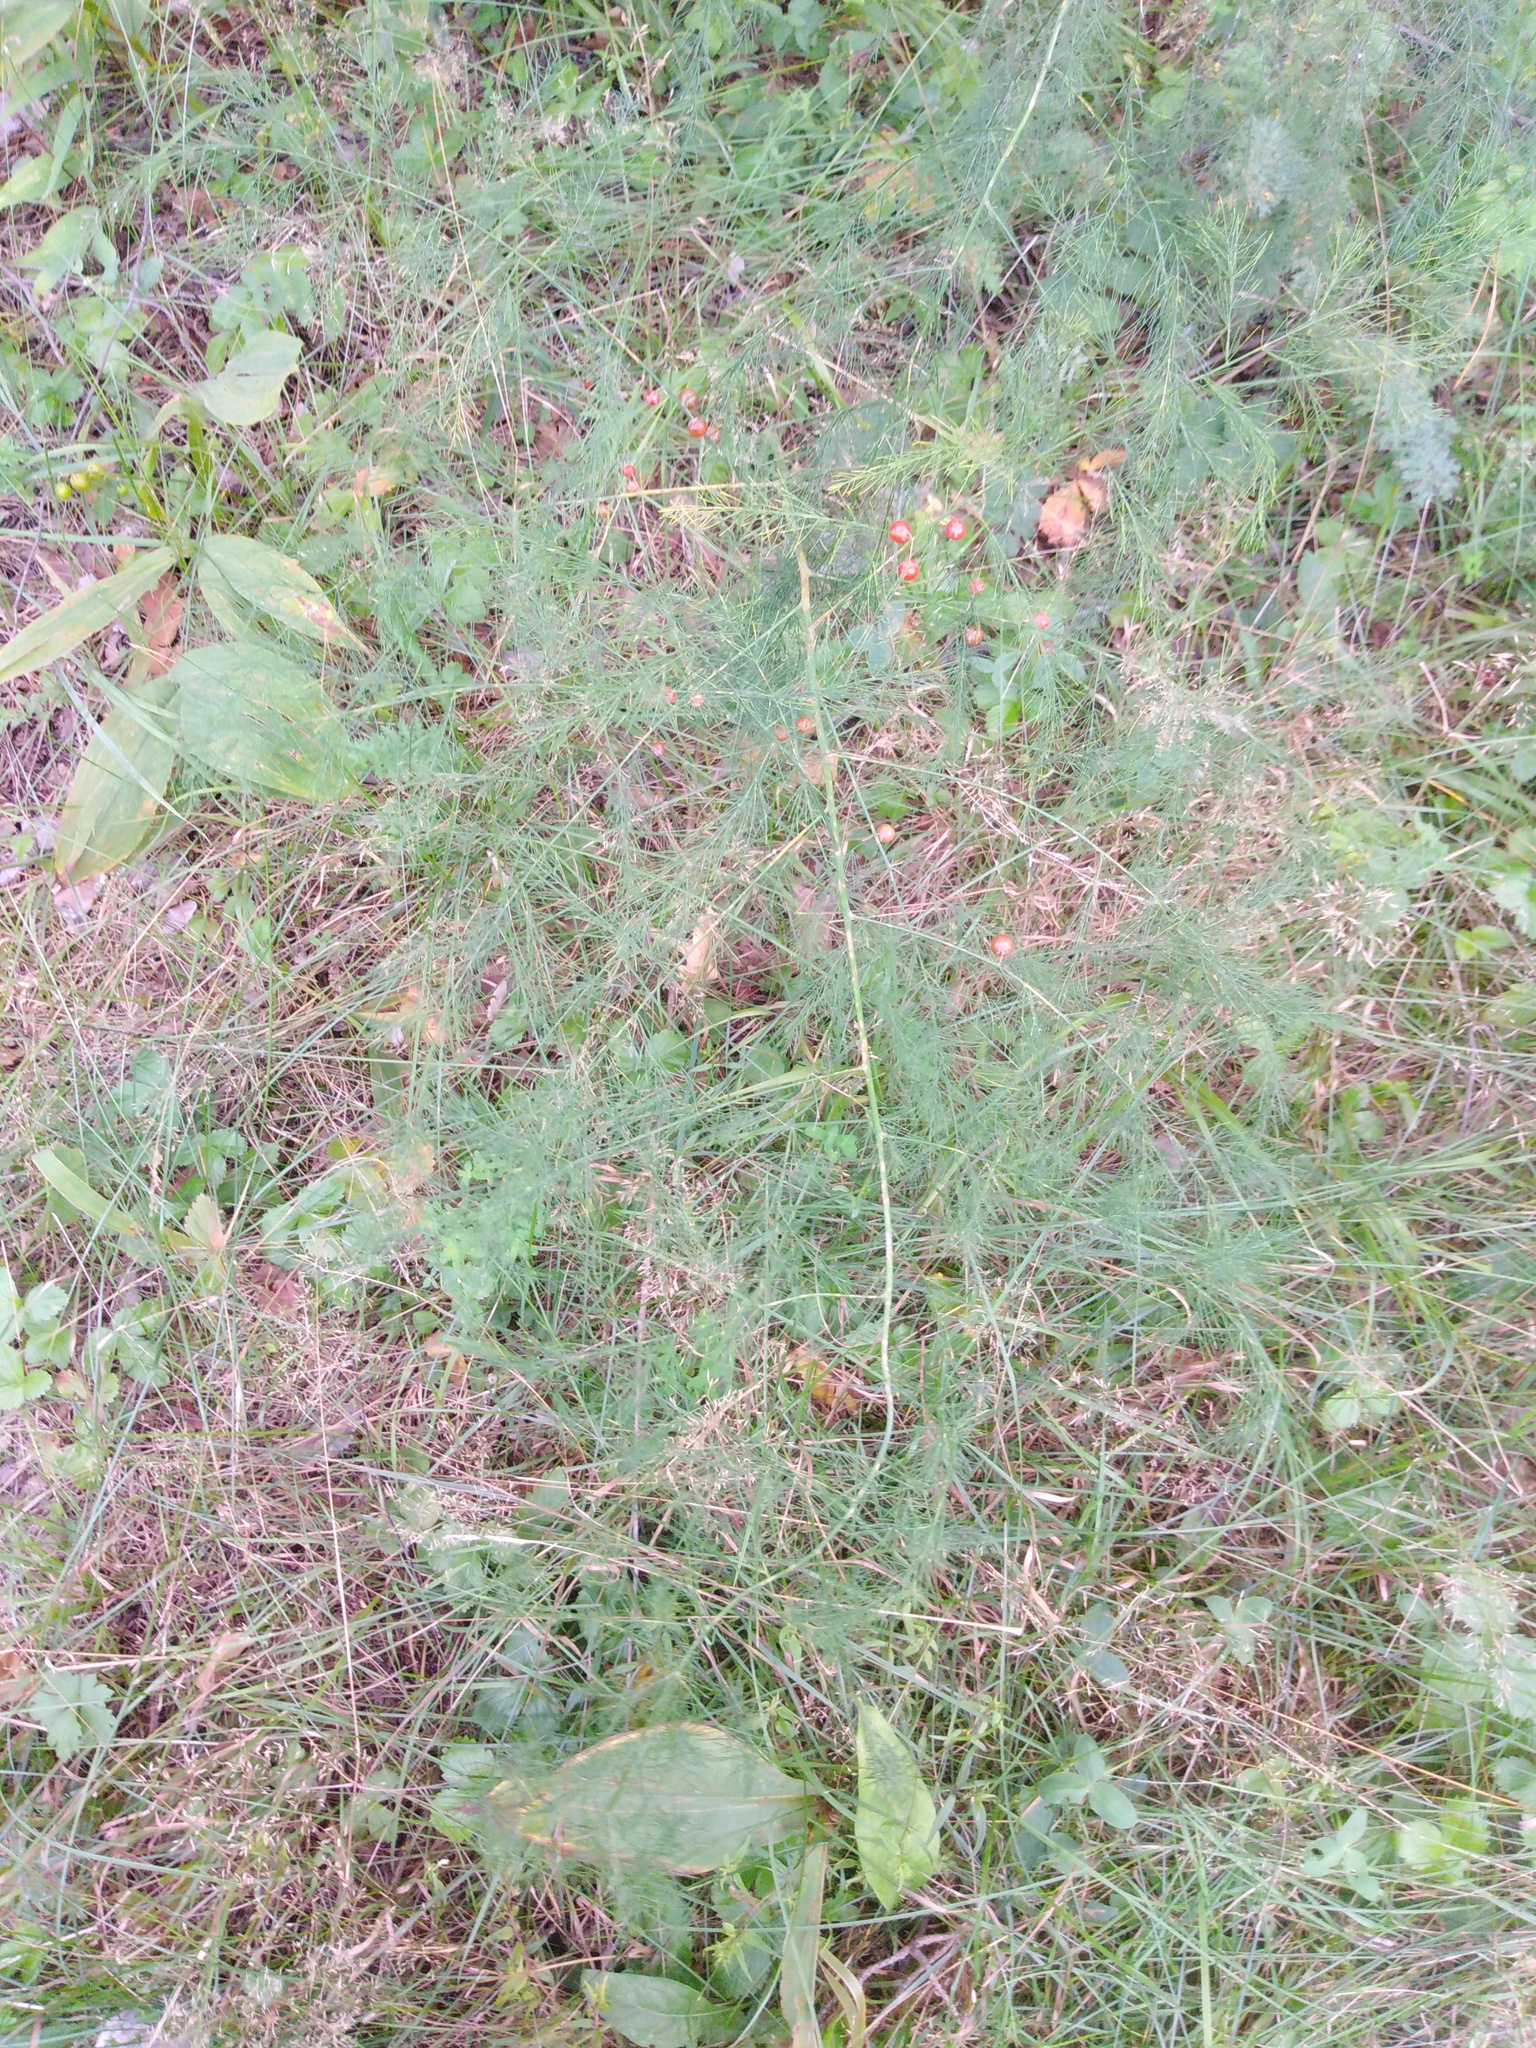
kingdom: Plantae
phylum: Tracheophyta
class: Liliopsida
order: Asparagales
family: Asparagaceae
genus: Asparagus
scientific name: Asparagus officinalis
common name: Garden asparagus
